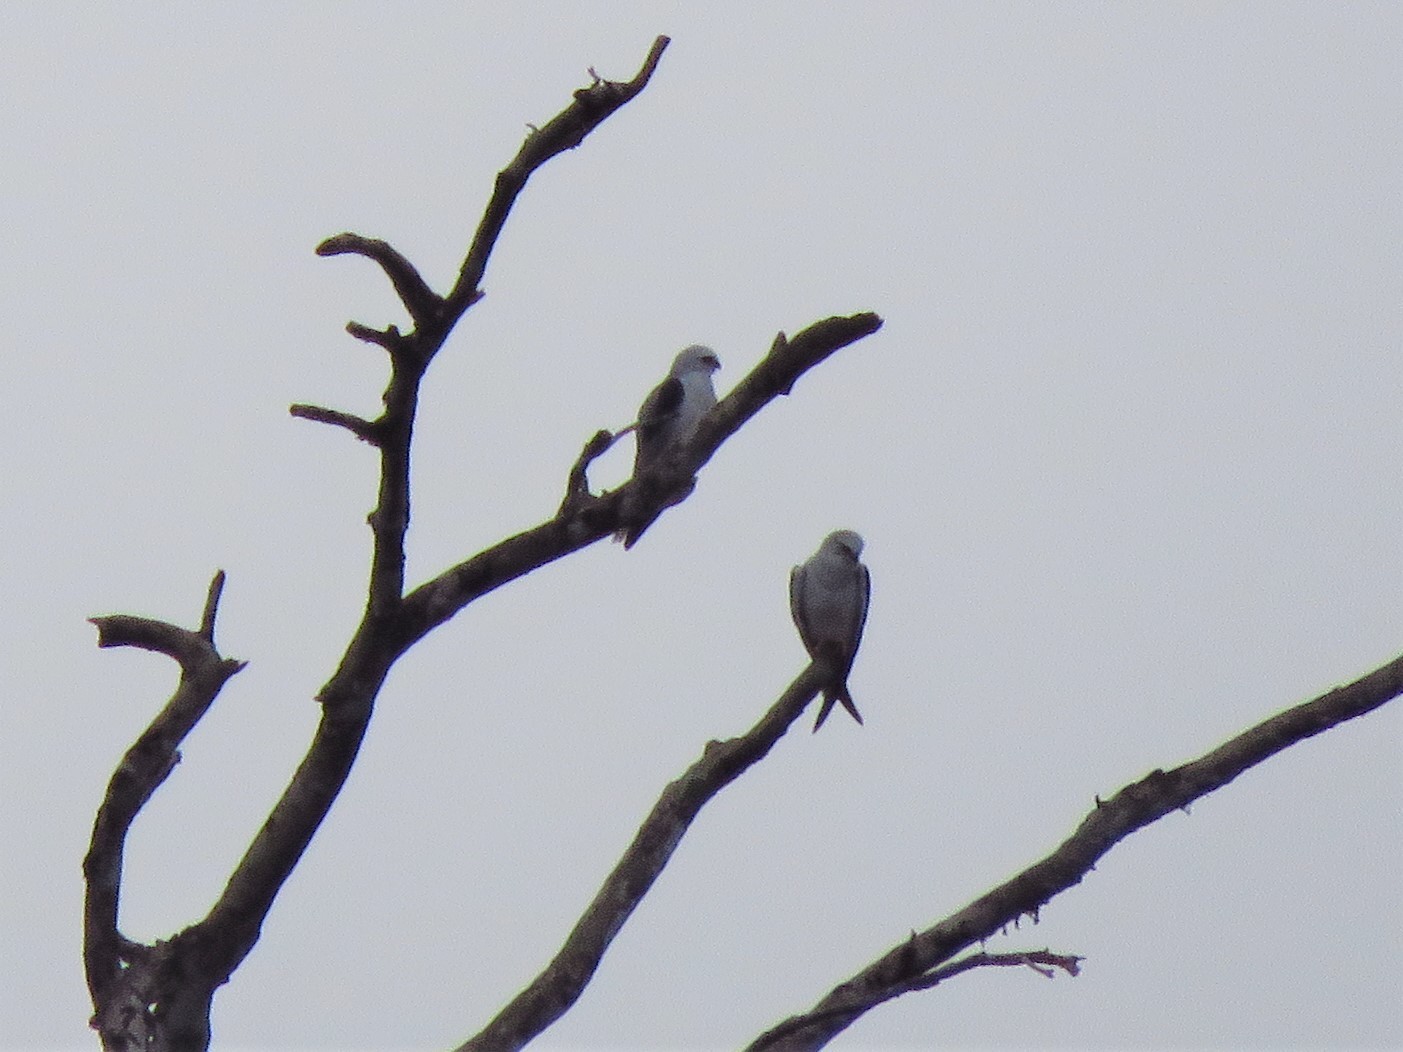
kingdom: Animalia
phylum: Chordata
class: Aves
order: Accipitriformes
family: Accipitridae
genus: Elanus
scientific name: Elanus leucurus
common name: White-tailed kite
